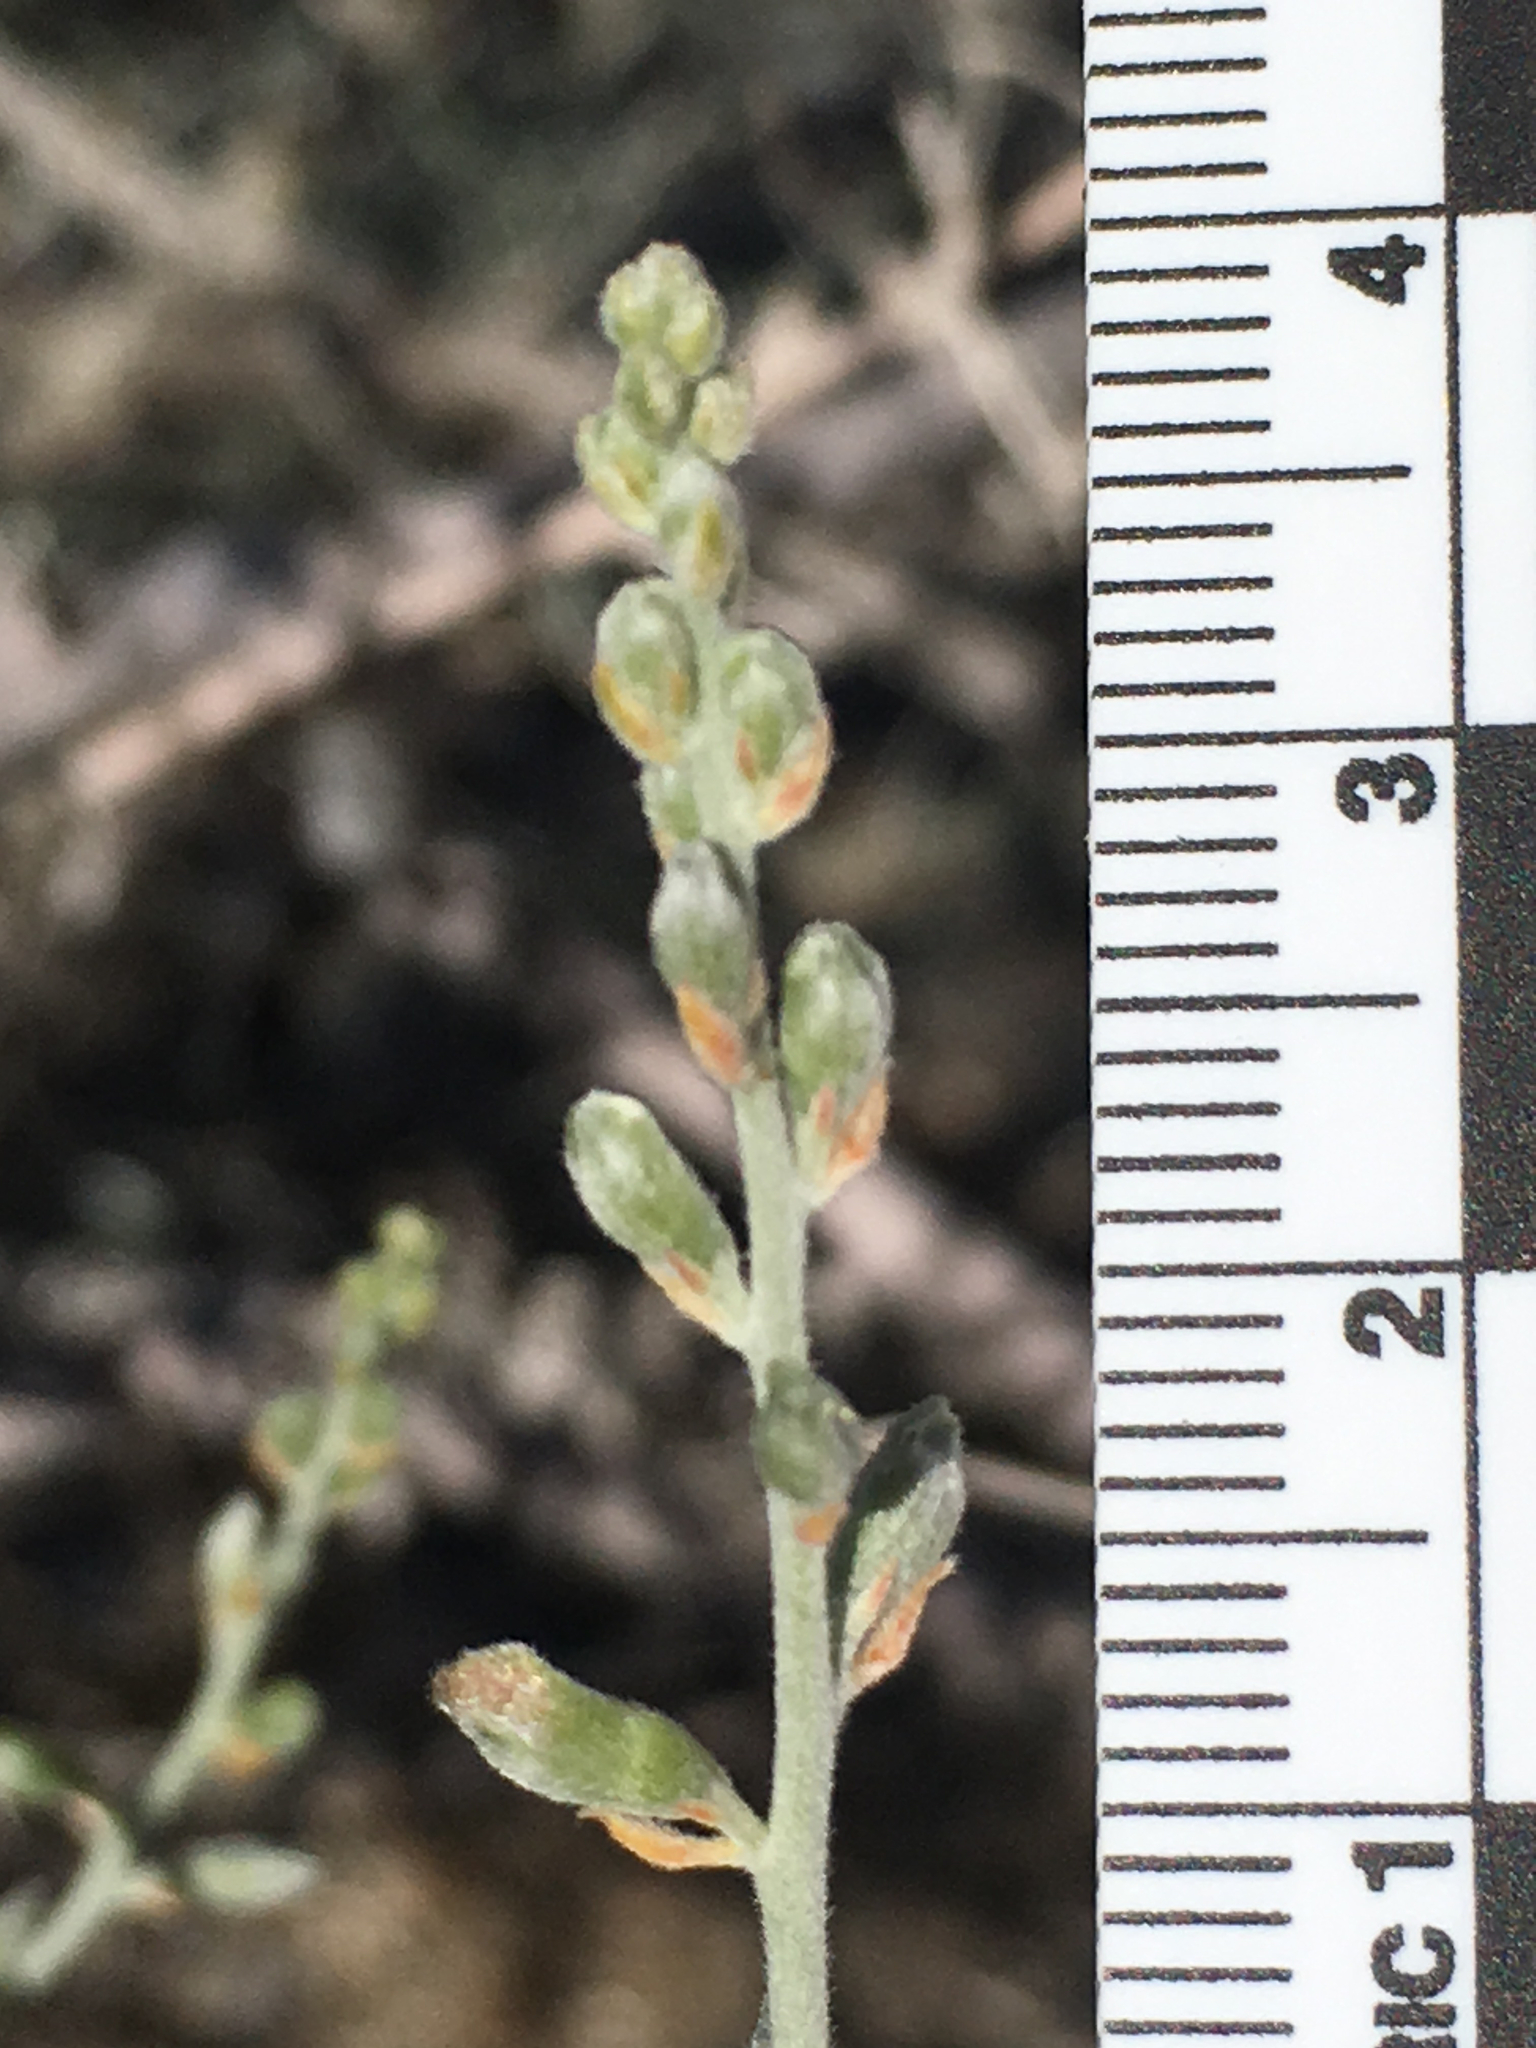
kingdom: Plantae
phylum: Tracheophyta
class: Magnoliopsida
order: Fabales
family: Fabaceae
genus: Psorothamnus
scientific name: Psorothamnus schottii
